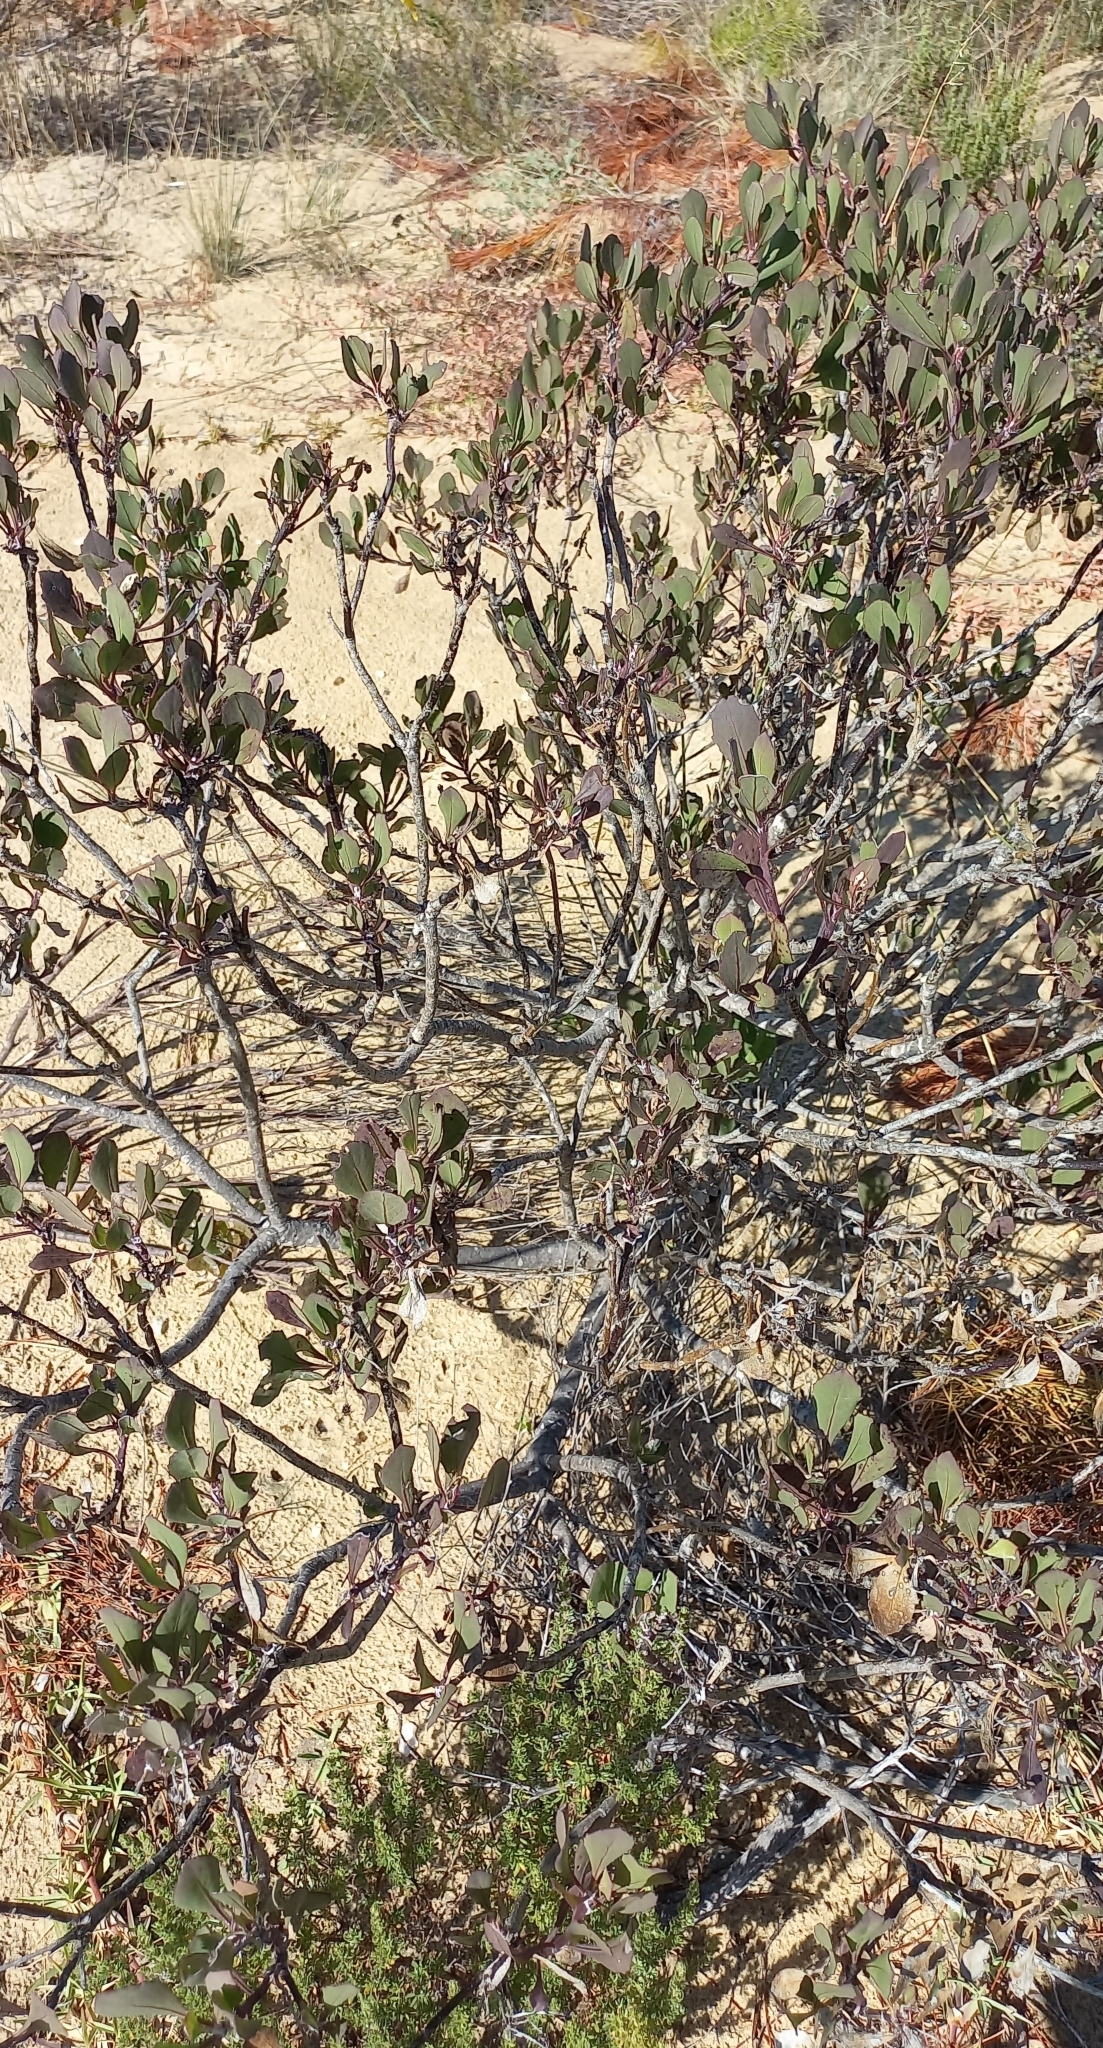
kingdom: Plantae
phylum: Tracheophyta
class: Magnoliopsida
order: Asterales
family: Asteraceae
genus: Osteospermum
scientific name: Osteospermum moniliferum
